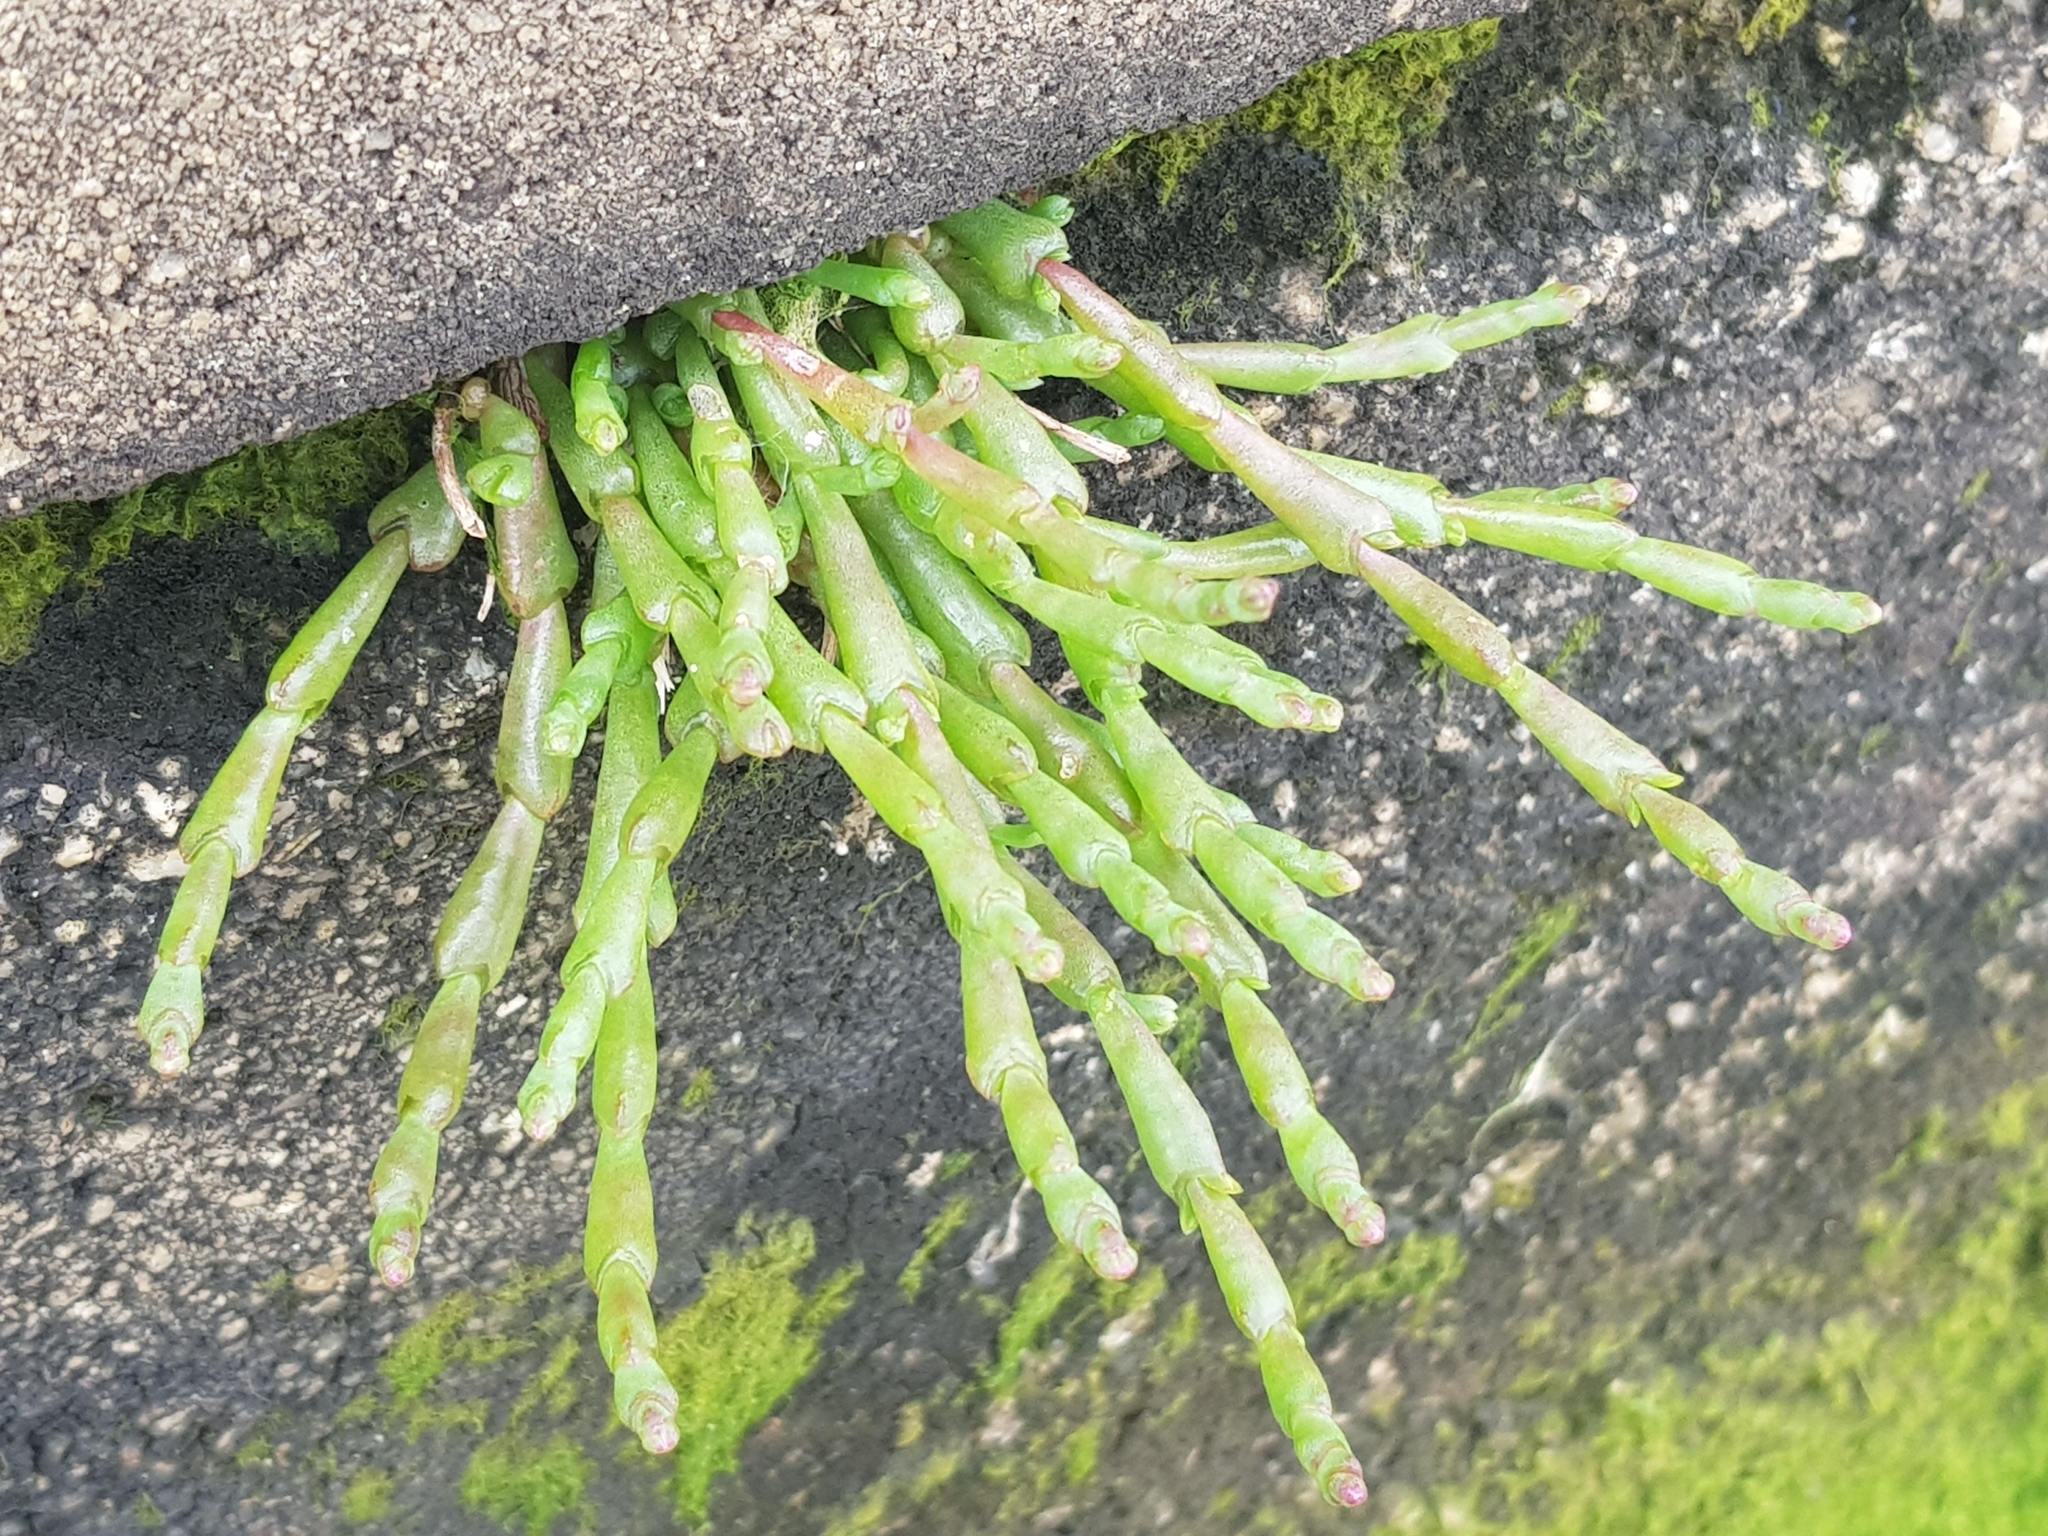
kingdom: Plantae
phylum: Tracheophyta
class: Magnoliopsida
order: Caryophyllales
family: Amaranthaceae
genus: Salicornia
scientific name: Salicornia quinqueflora
